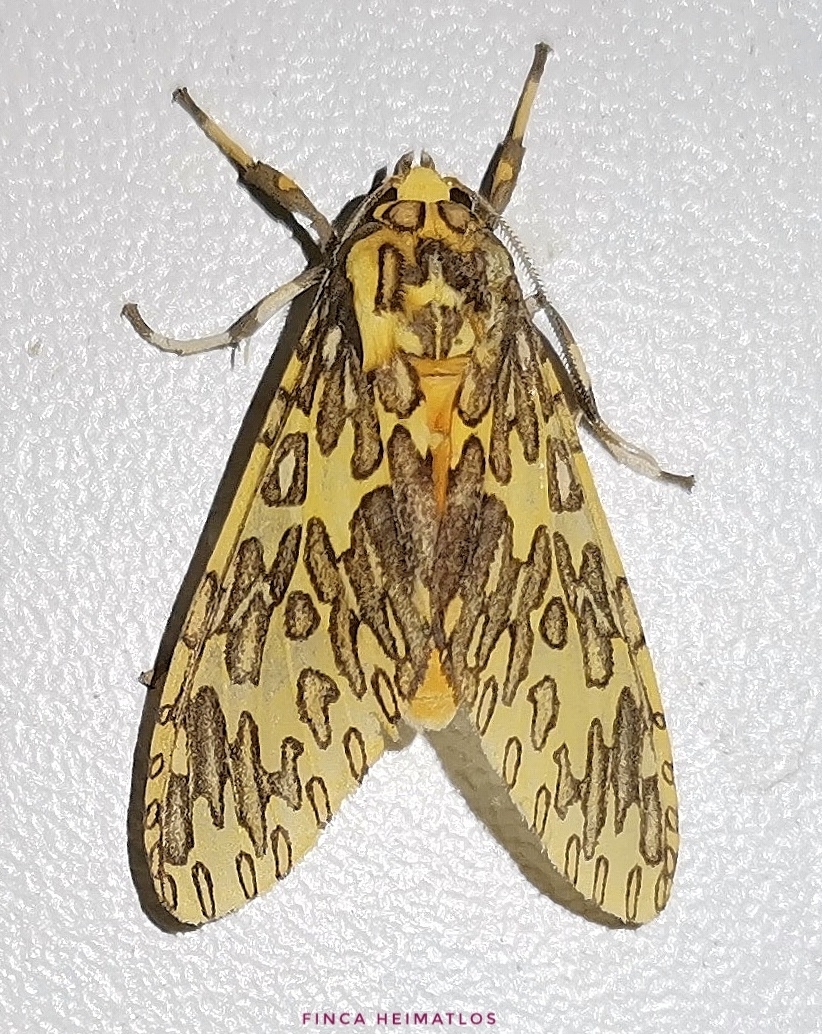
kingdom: Animalia
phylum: Arthropoda
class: Insecta
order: Lepidoptera
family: Erebidae
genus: Amaxia
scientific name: Amaxia pandama
